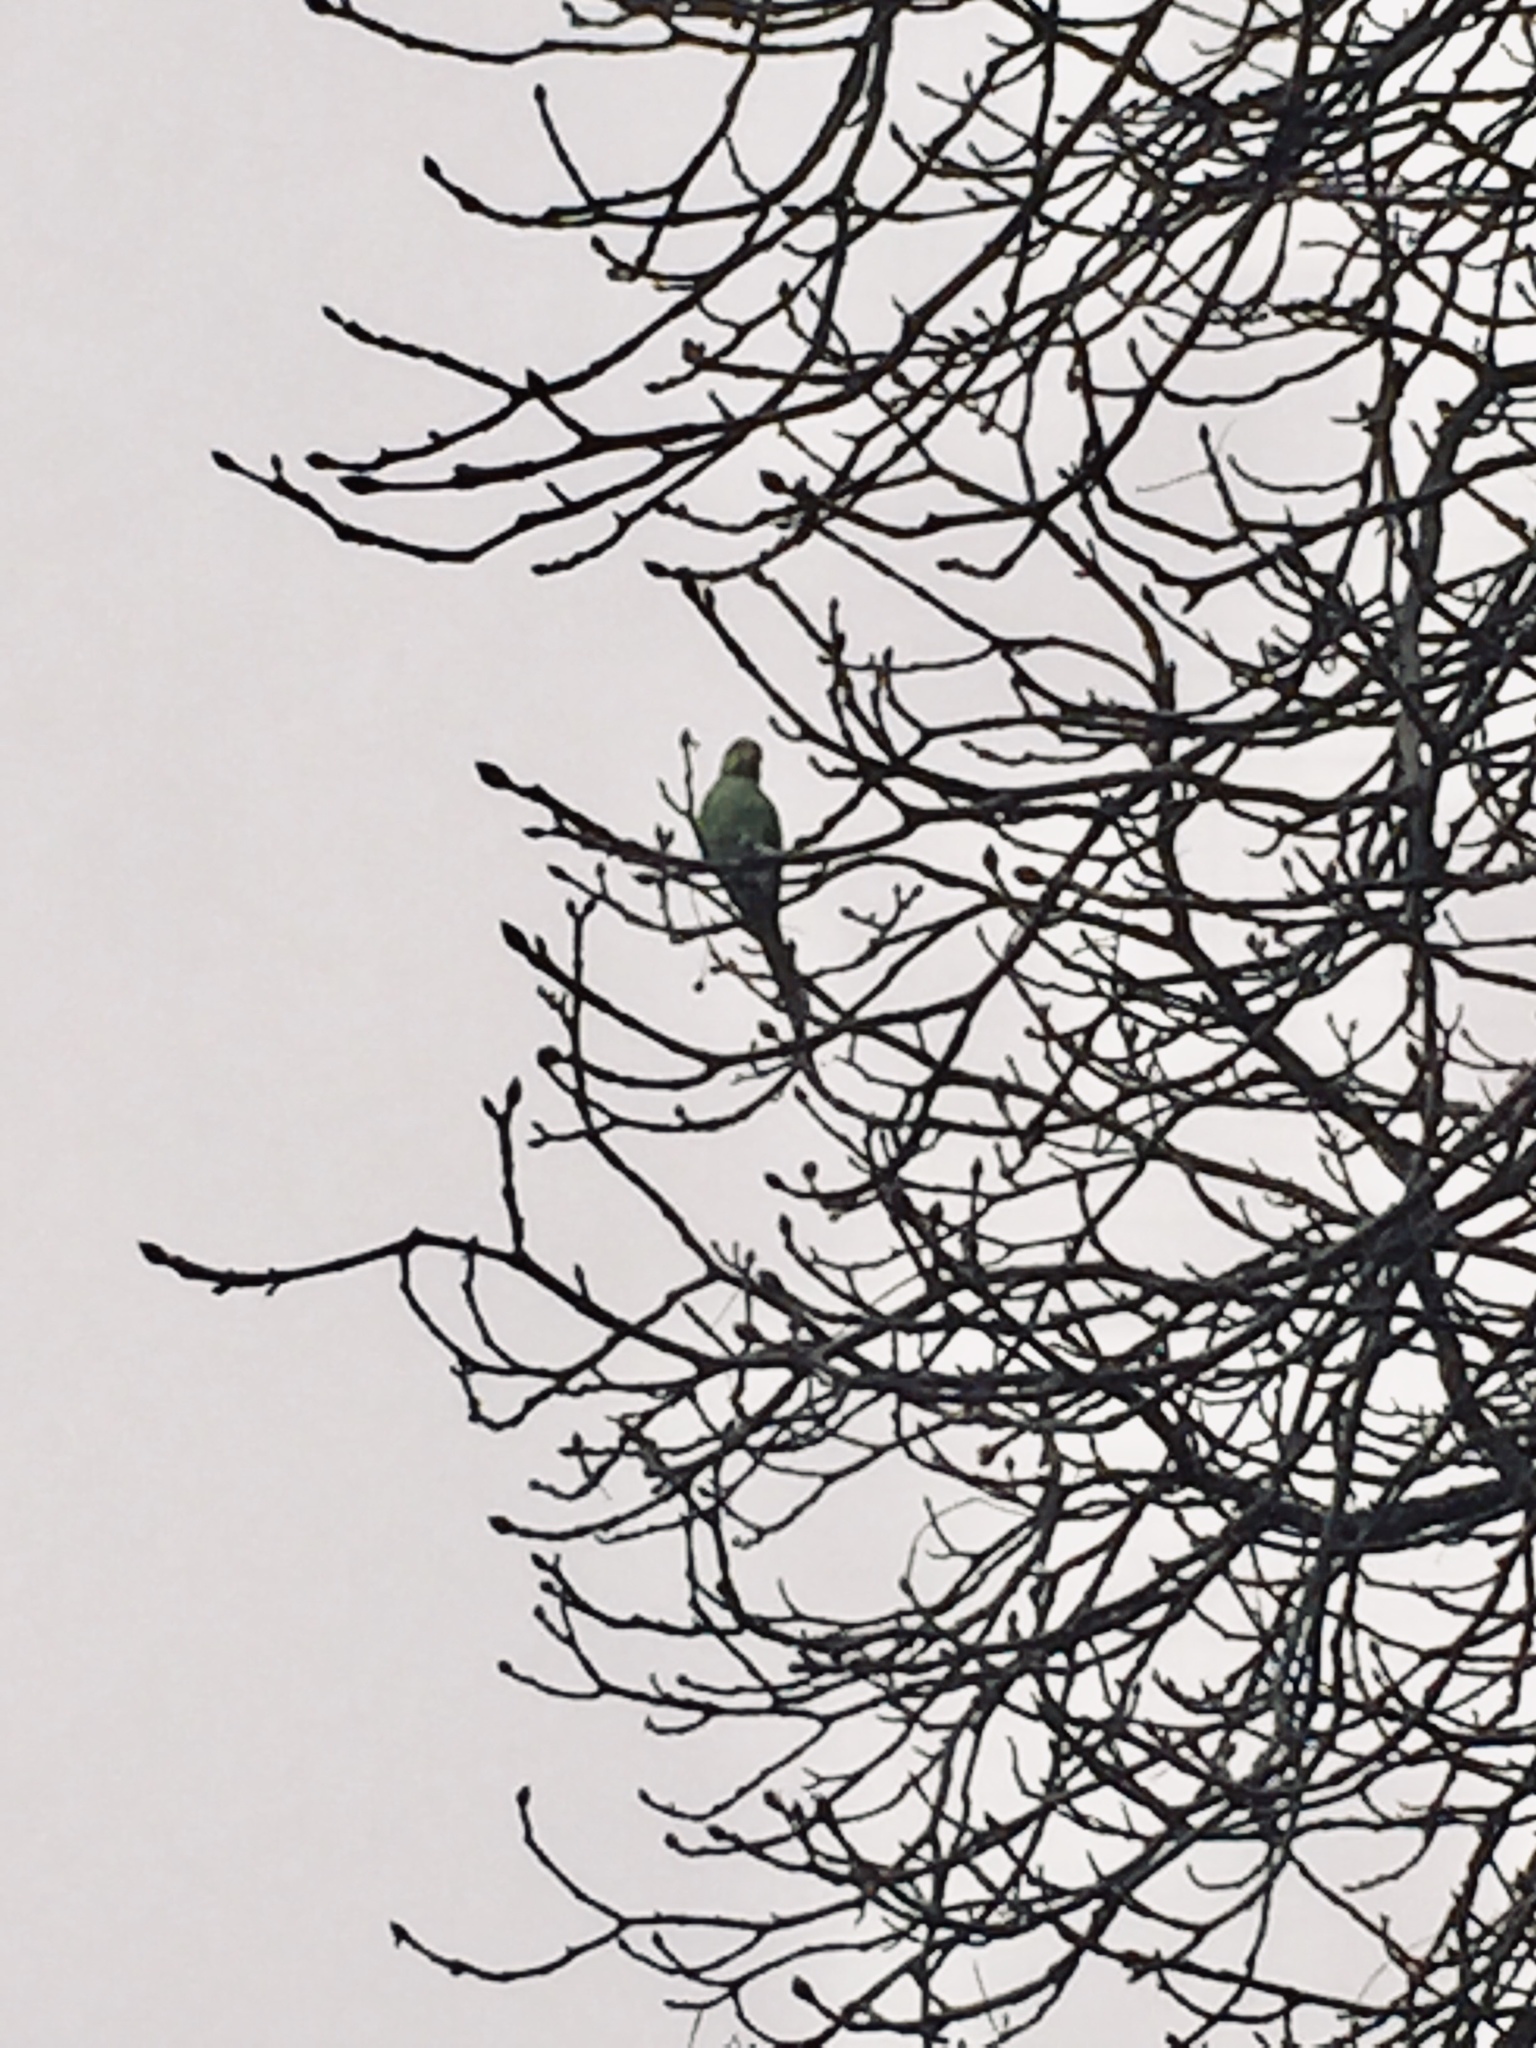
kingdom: Animalia
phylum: Chordata
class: Aves
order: Psittaciformes
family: Psittacidae
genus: Psittacula
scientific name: Psittacula krameri
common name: Rose-ringed parakeet
